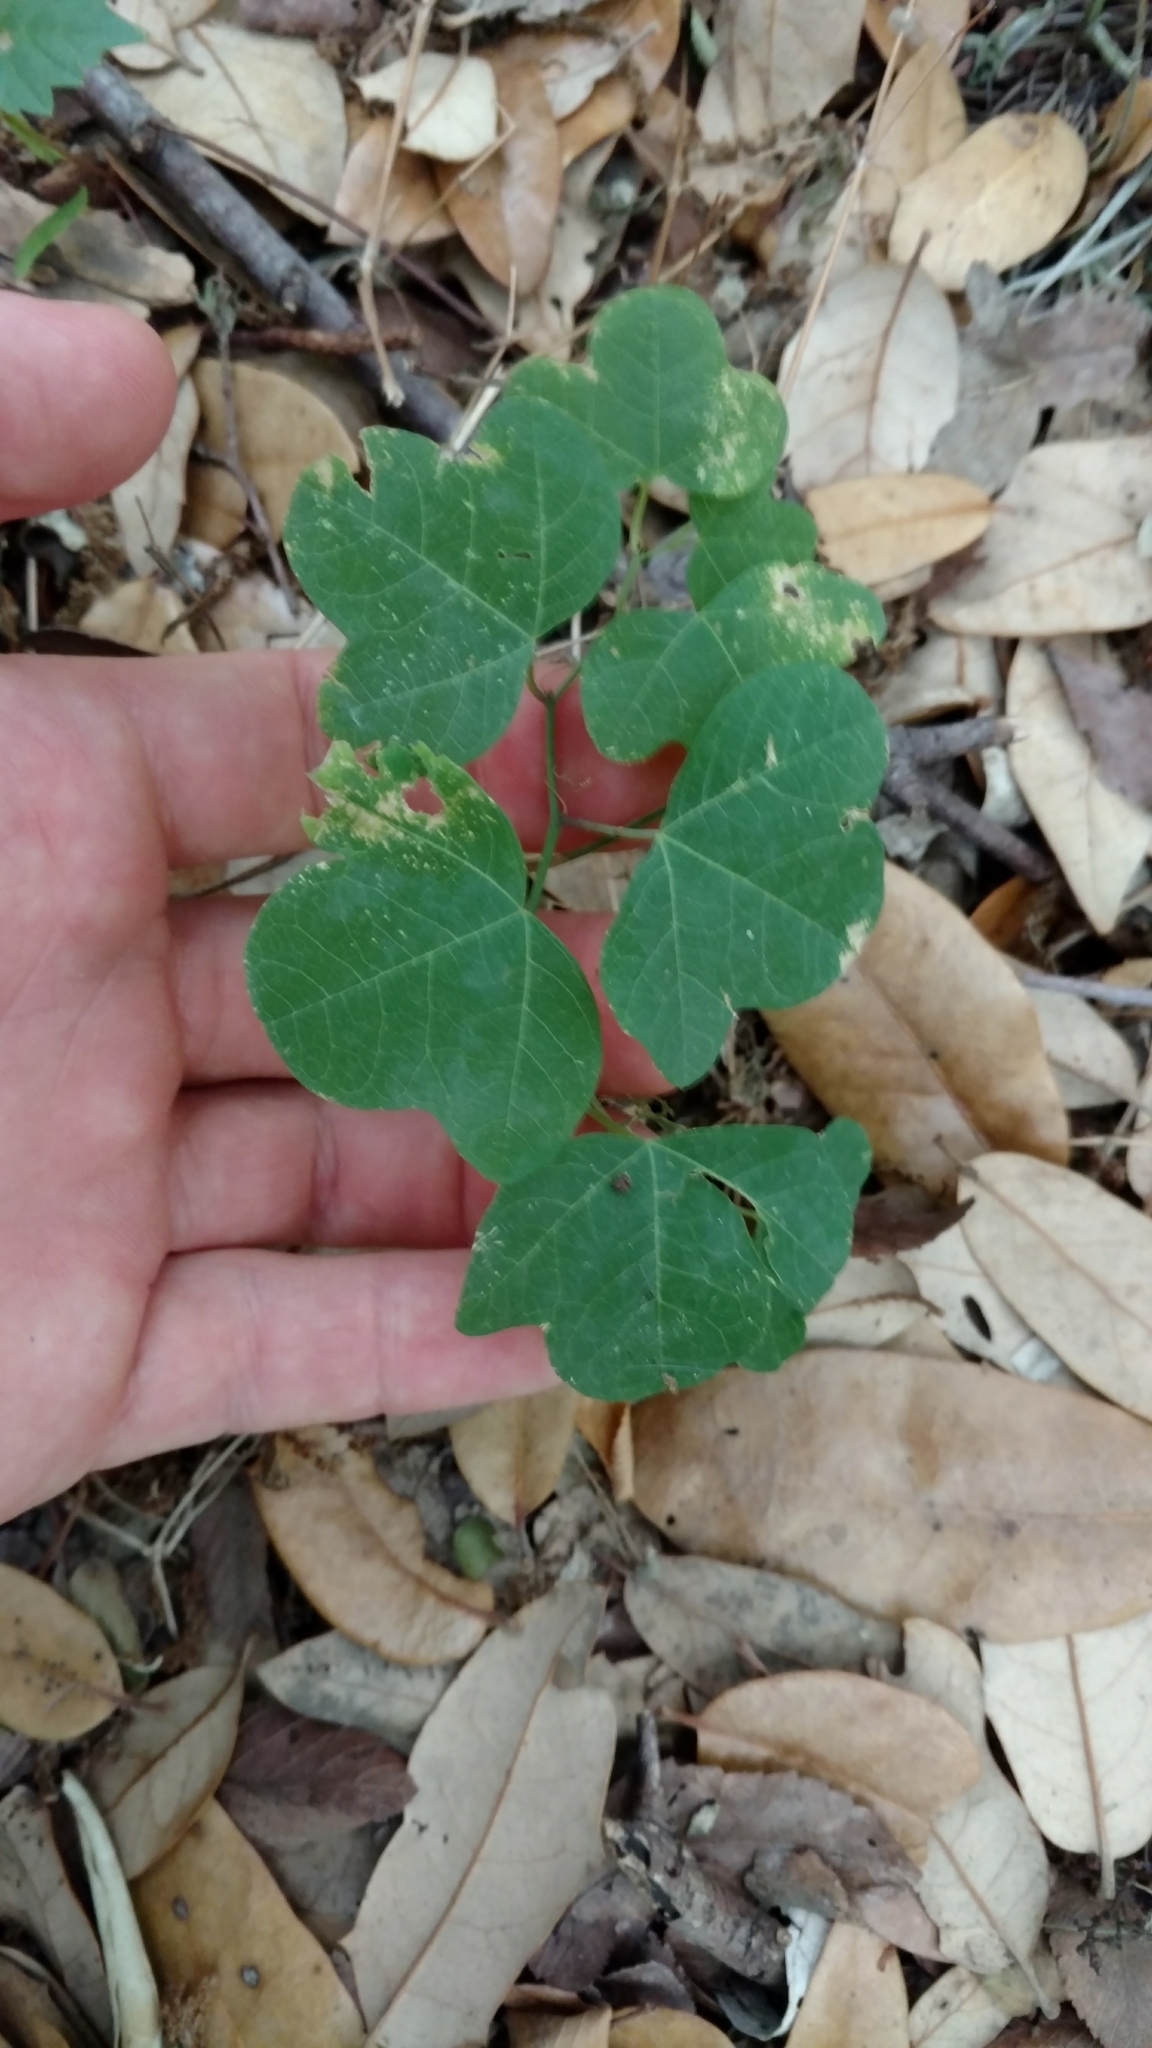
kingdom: Plantae
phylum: Tracheophyta
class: Magnoliopsida
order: Malpighiales
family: Passifloraceae
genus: Passiflora
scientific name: Passiflora lutea
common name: Yellow passionflower
